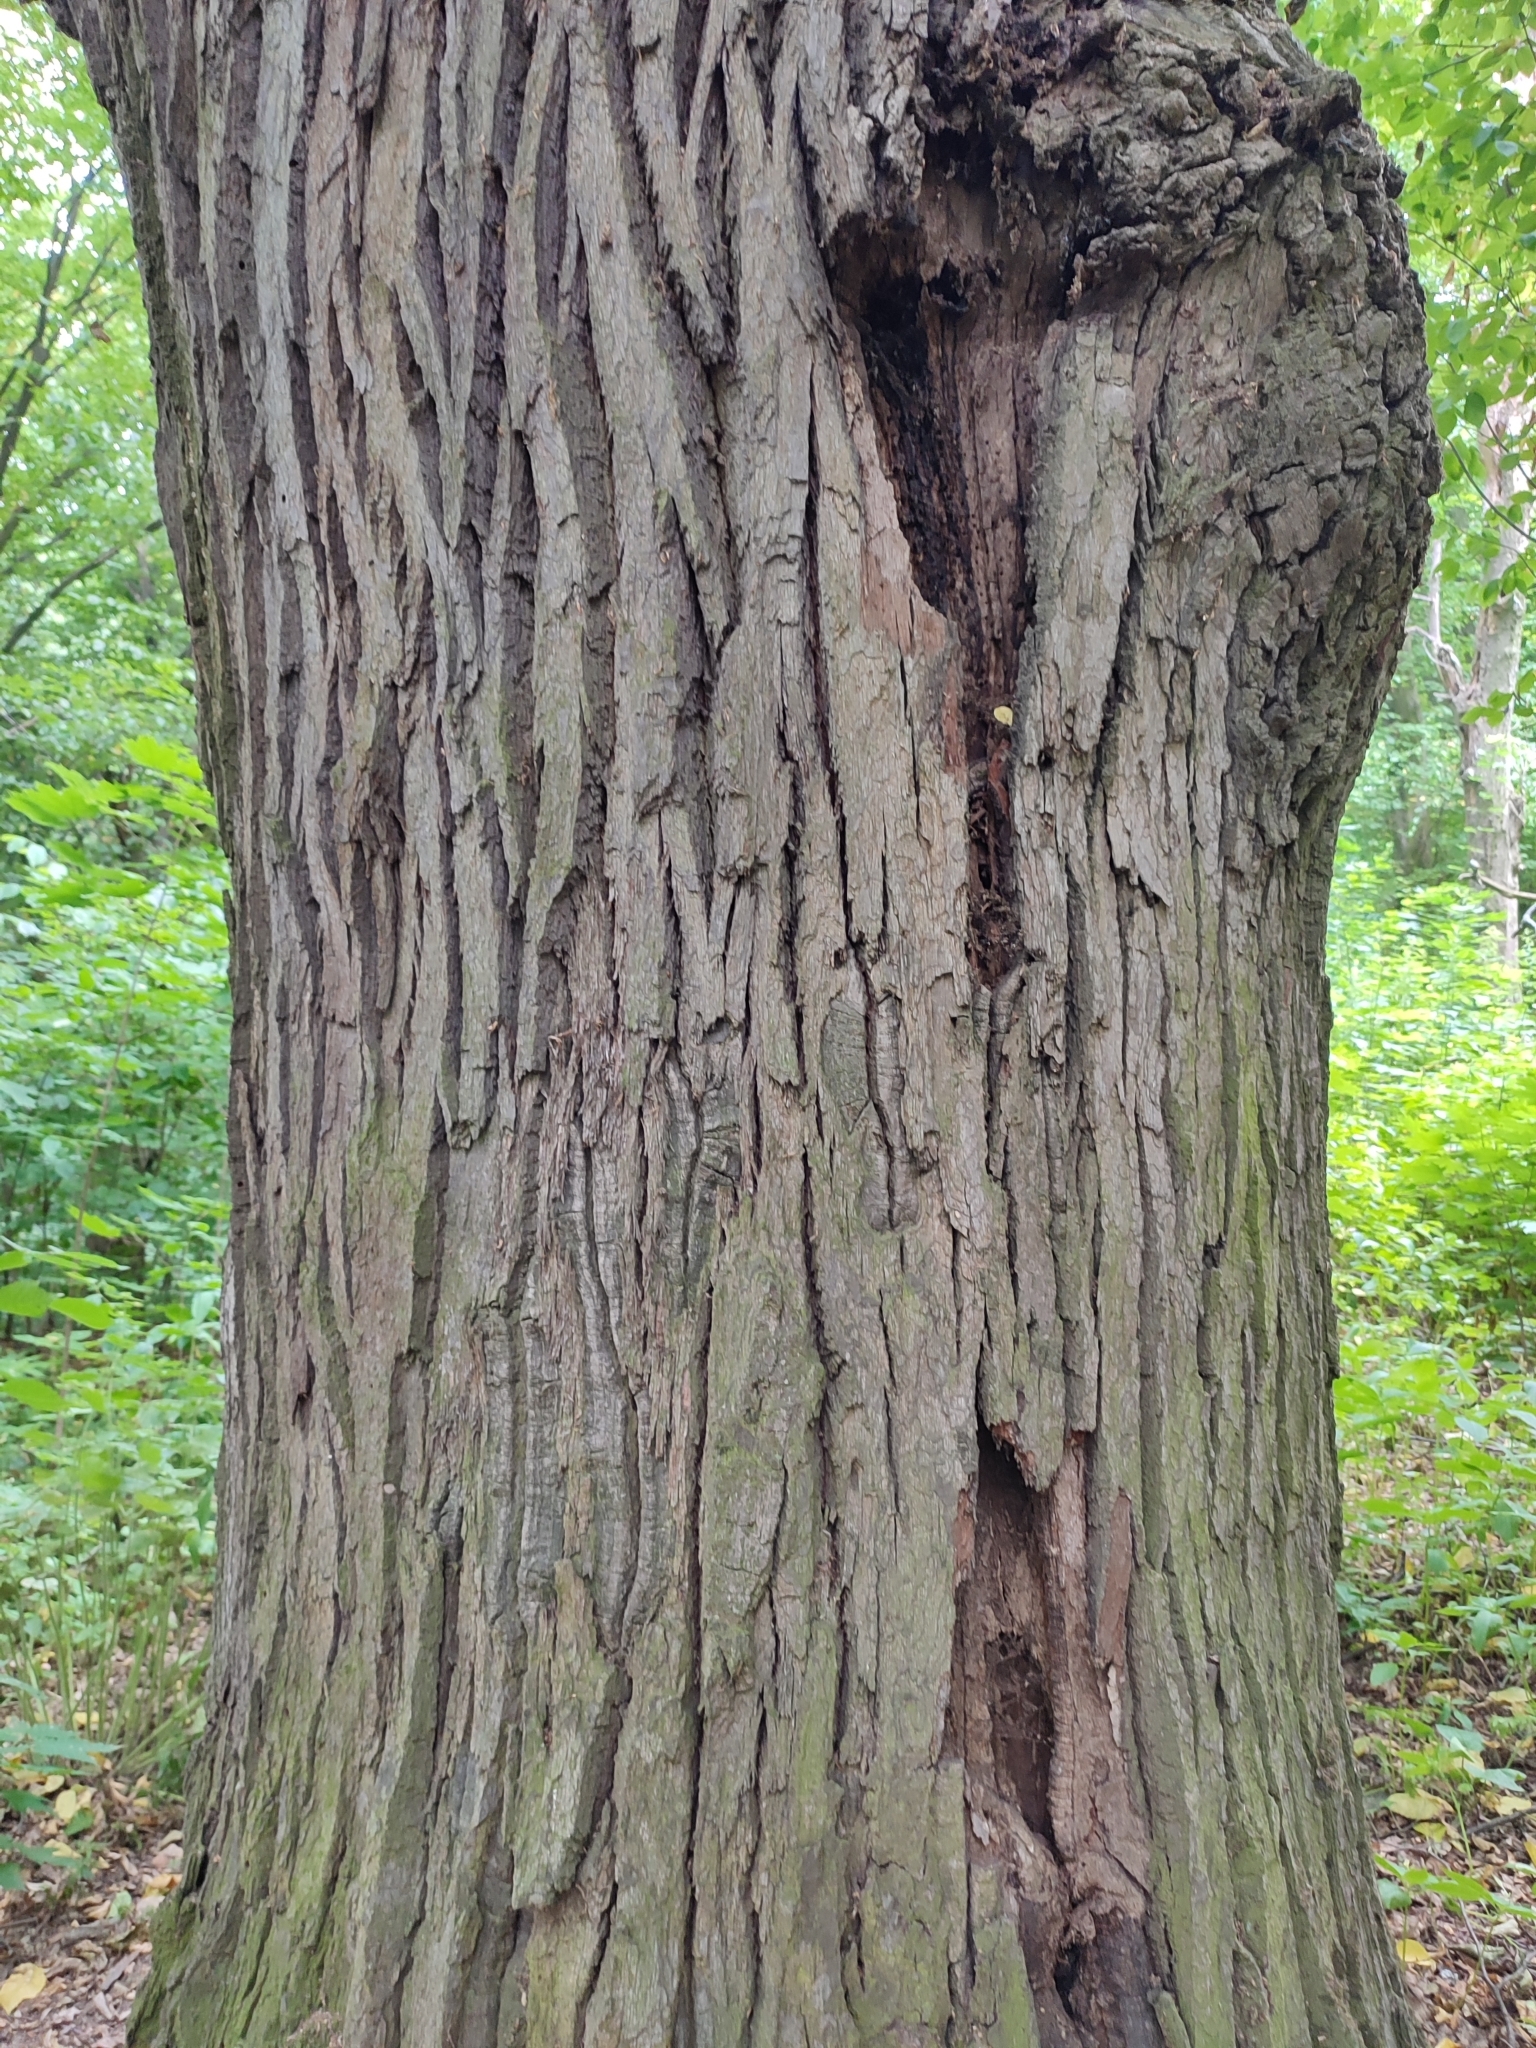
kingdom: Plantae
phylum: Tracheophyta
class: Magnoliopsida
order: Fagales
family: Fagaceae
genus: Quercus
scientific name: Quercus robur
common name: Pedunculate oak
